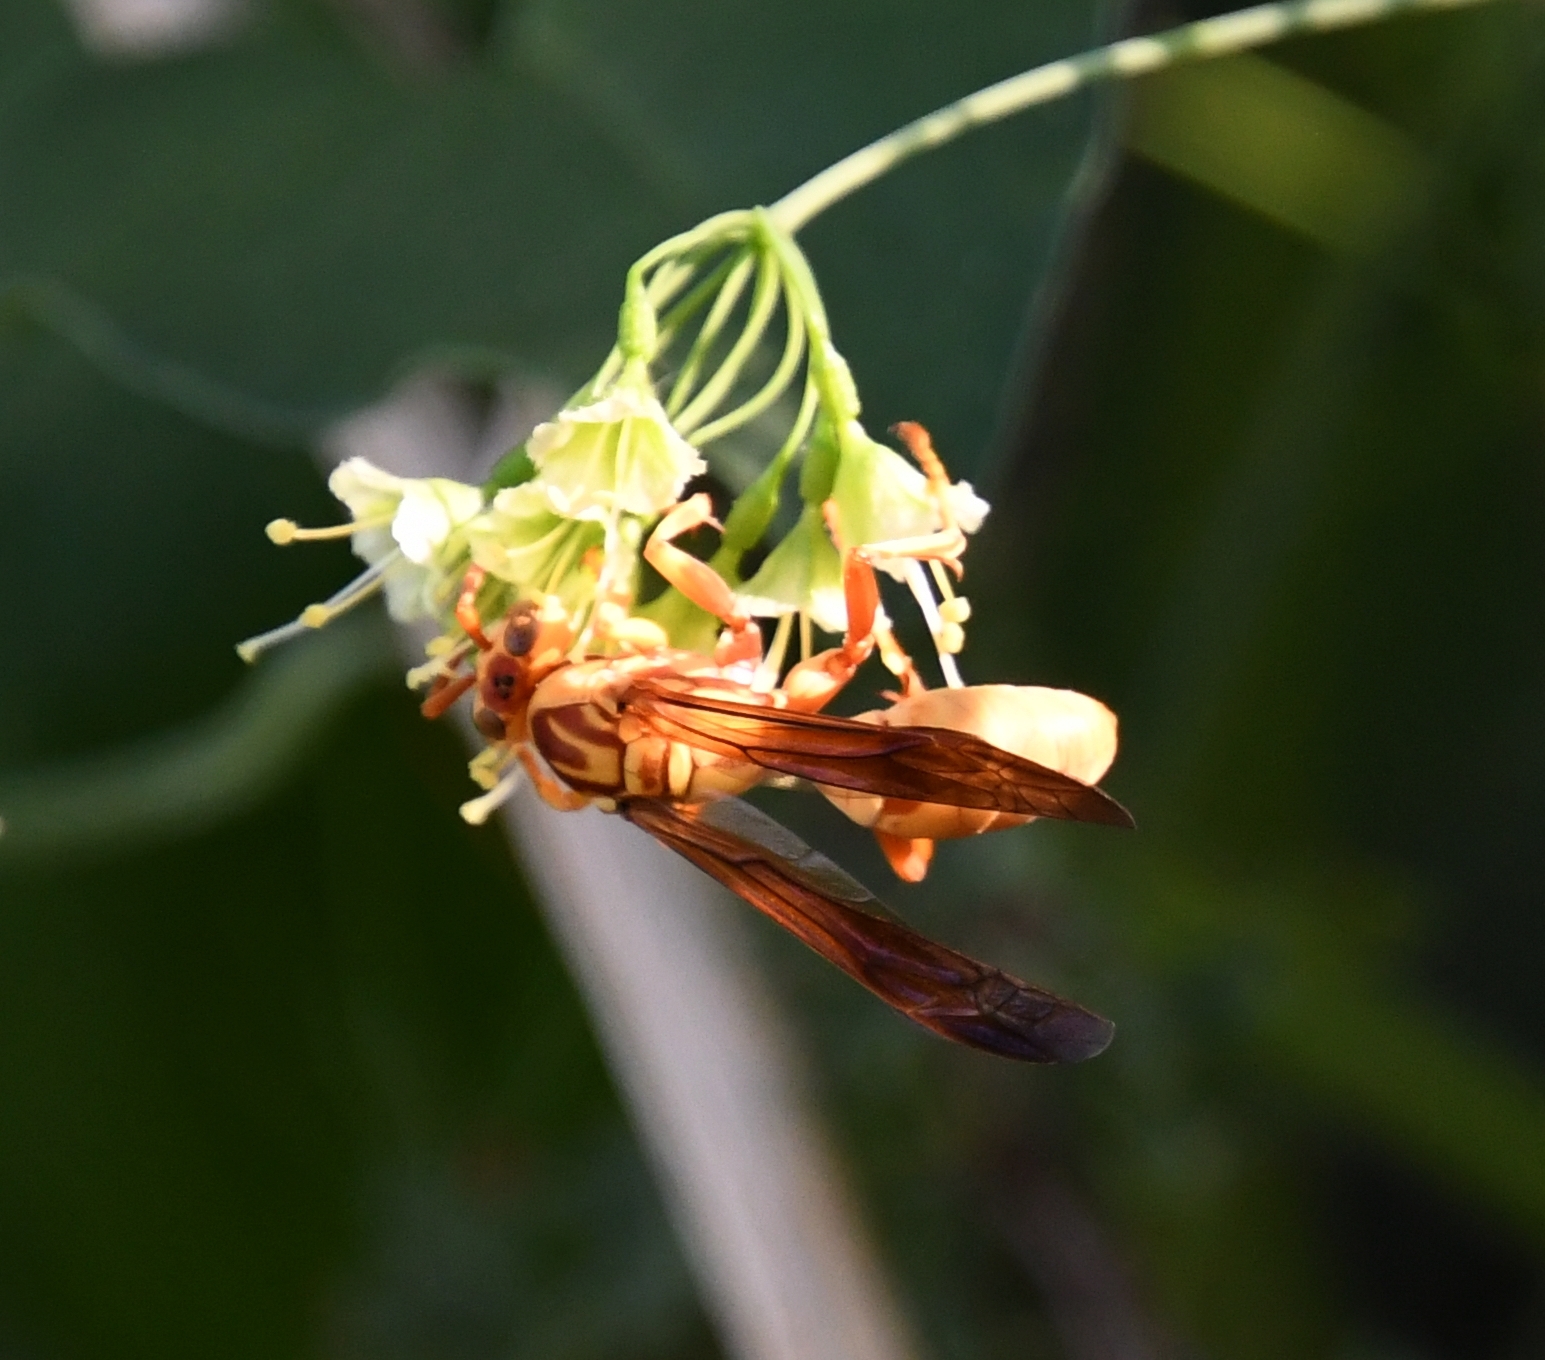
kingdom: Animalia
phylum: Arthropoda
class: Insecta
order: Hymenoptera
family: Eumenidae
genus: Polistes
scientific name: Polistes aurifer
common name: Paper wasp
